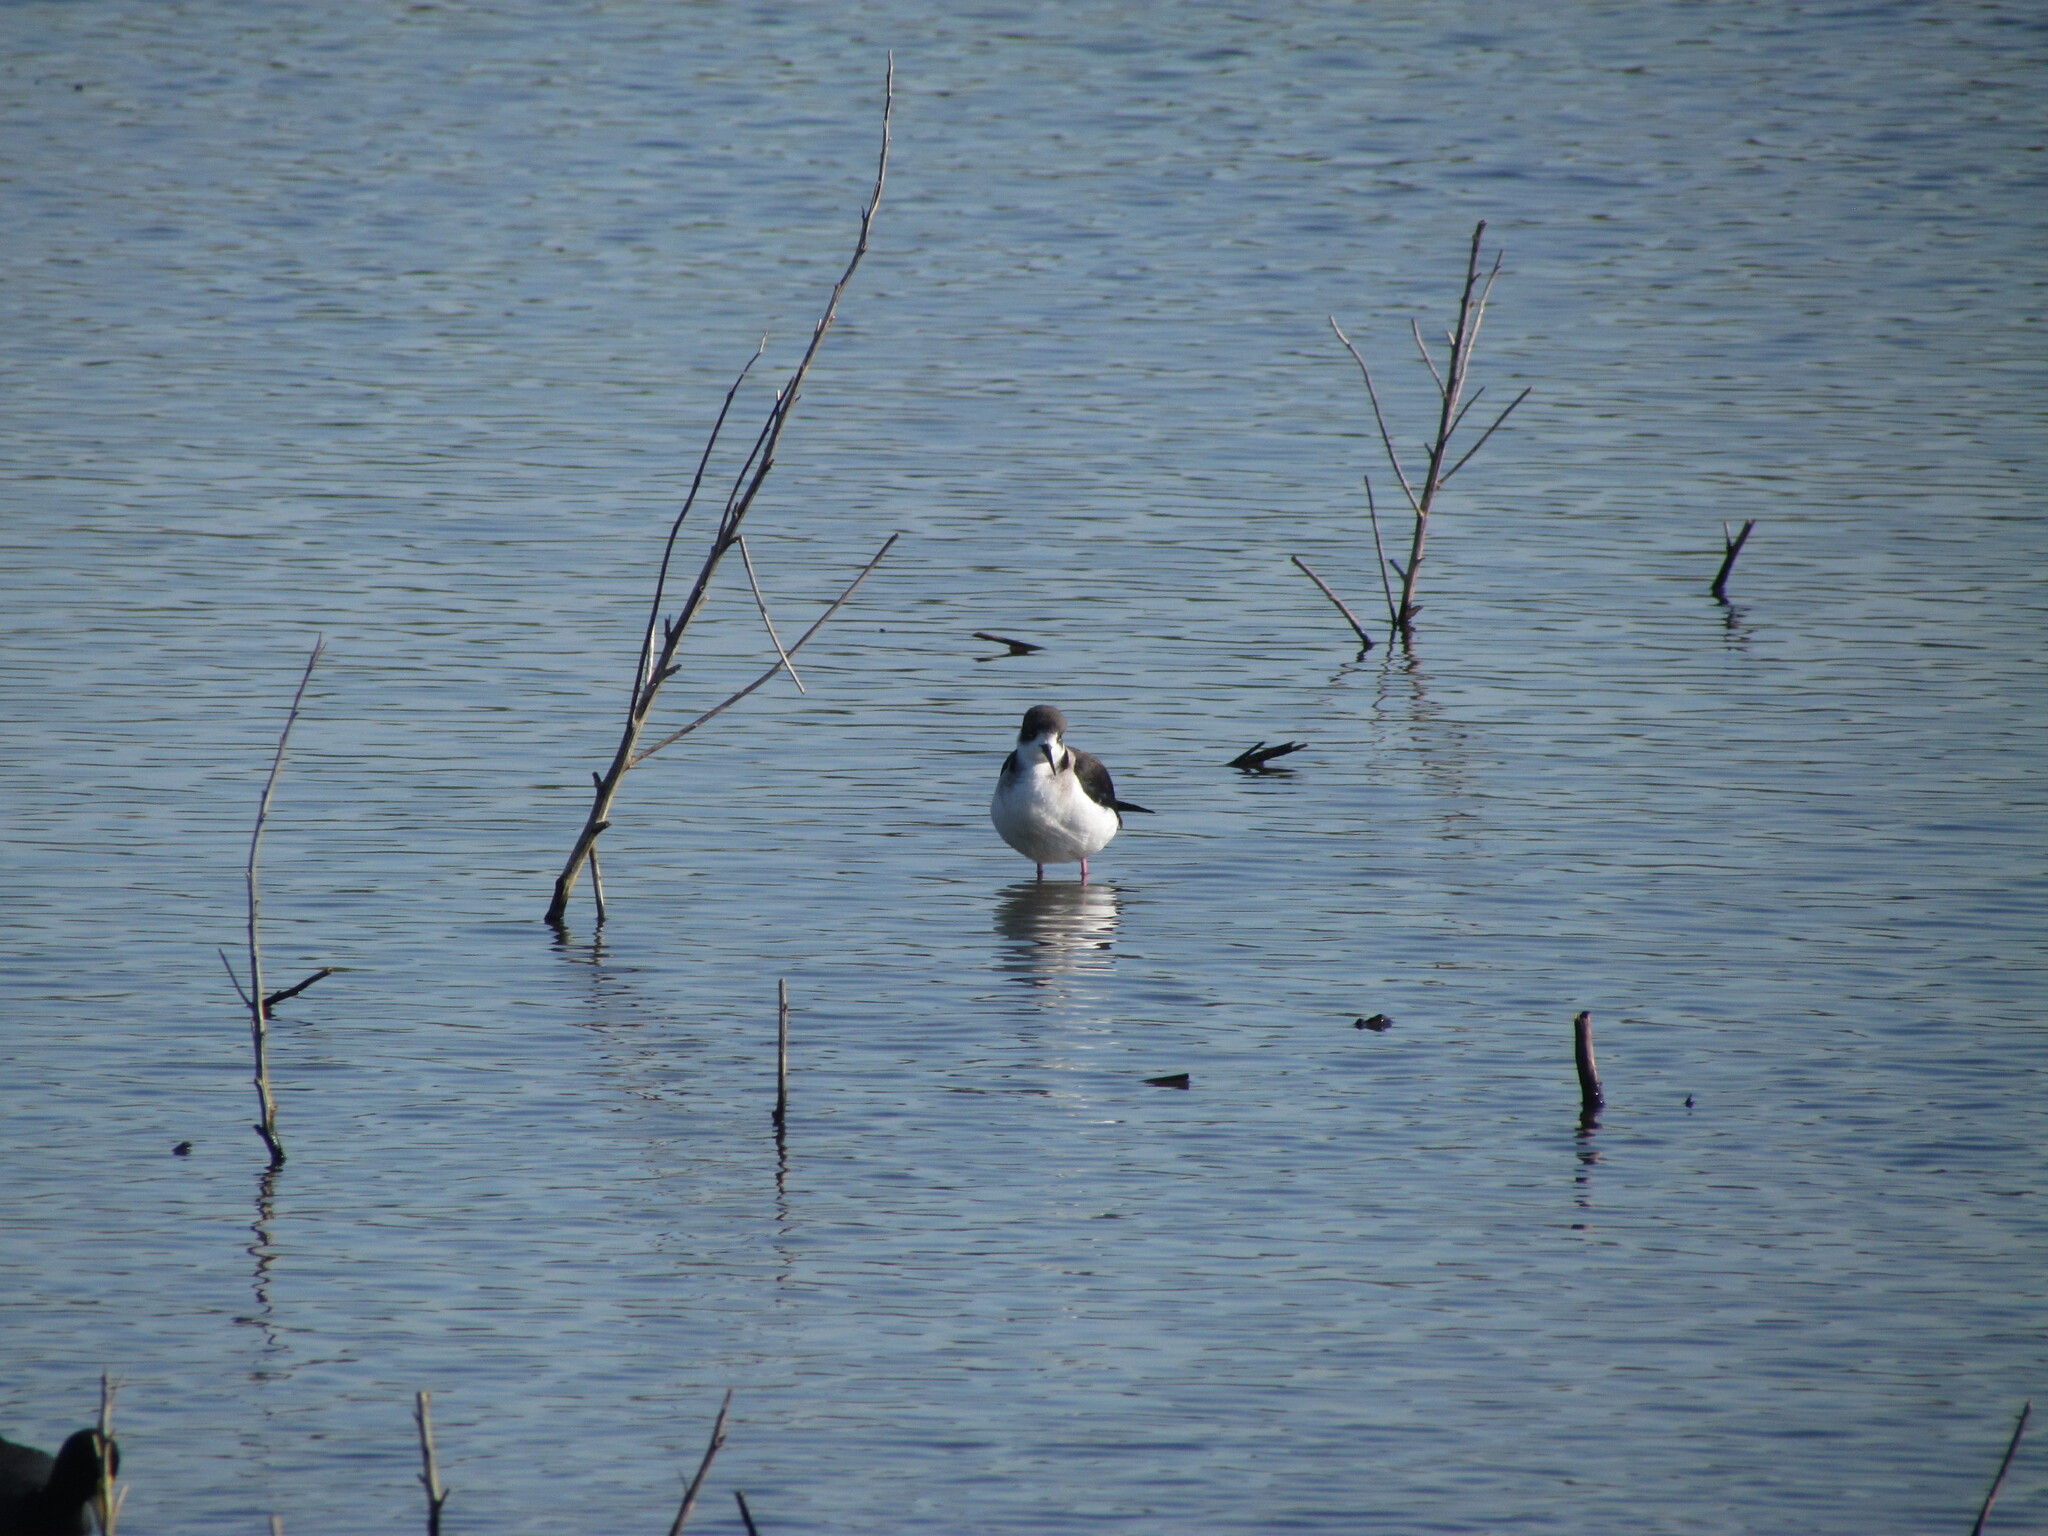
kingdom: Animalia
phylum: Chordata
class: Aves
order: Charadriiformes
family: Recurvirostridae
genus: Himantopus
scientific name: Himantopus mexicanus
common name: Black-necked stilt
